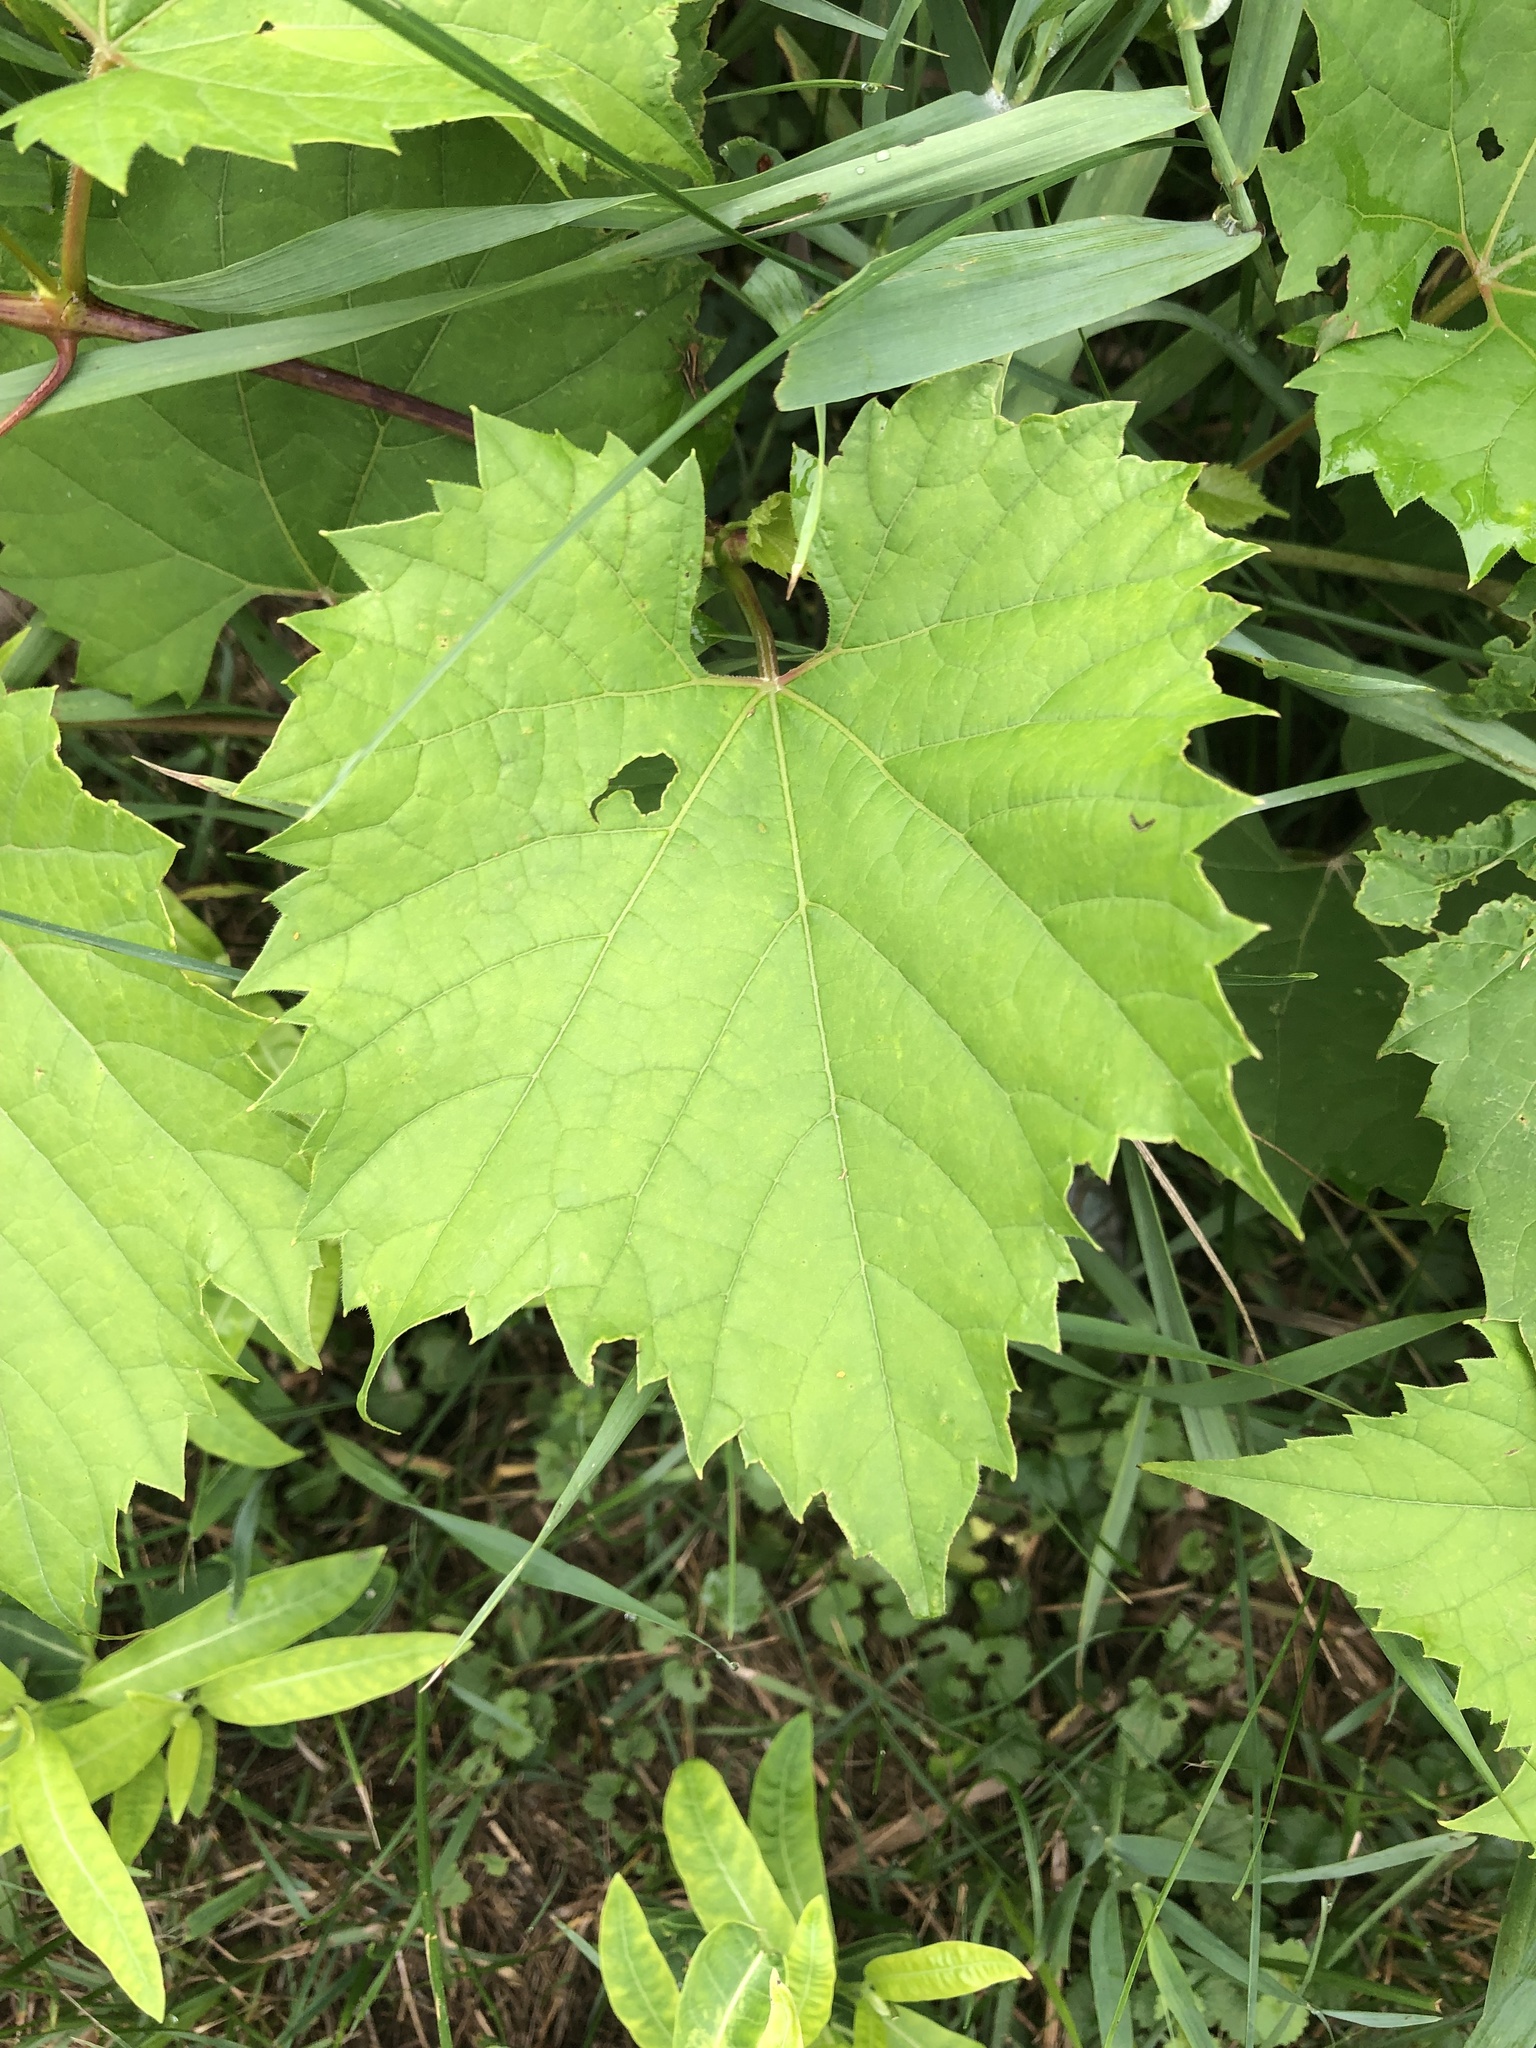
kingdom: Plantae
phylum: Tracheophyta
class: Magnoliopsida
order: Vitales
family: Vitaceae
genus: Vitis
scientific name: Vitis riparia
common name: Frost grape
